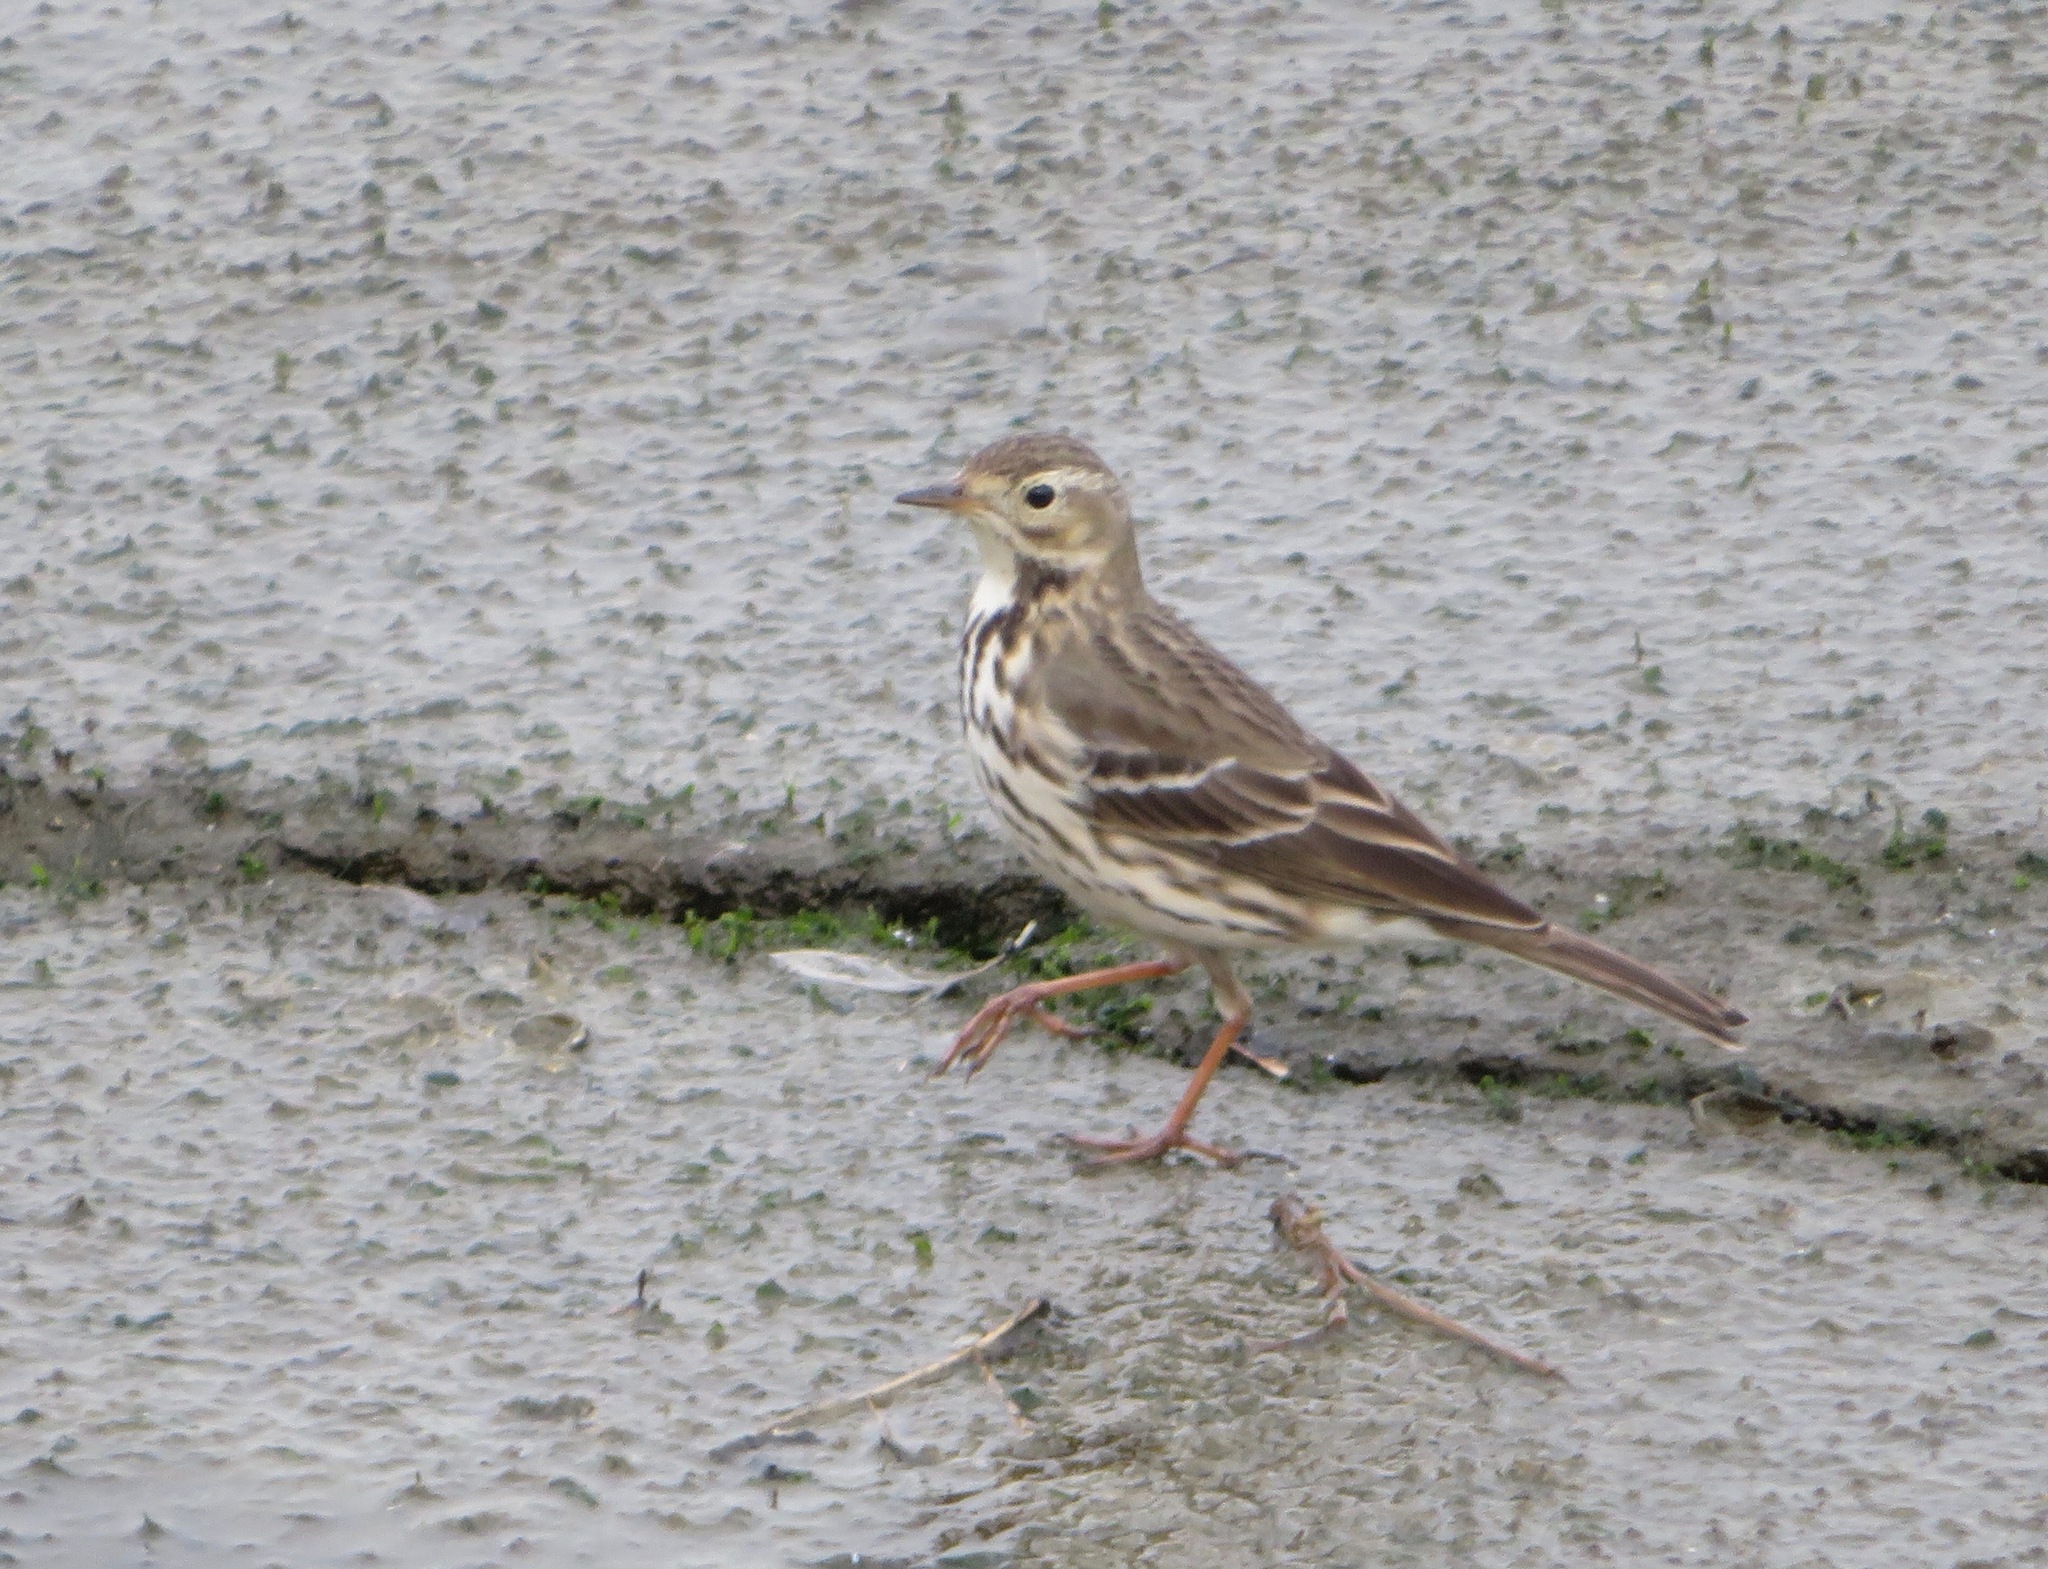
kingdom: Animalia
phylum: Chordata
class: Aves
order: Passeriformes
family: Motacillidae
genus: Anthus
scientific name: Anthus rubescens
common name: Buff-bellied pipit
